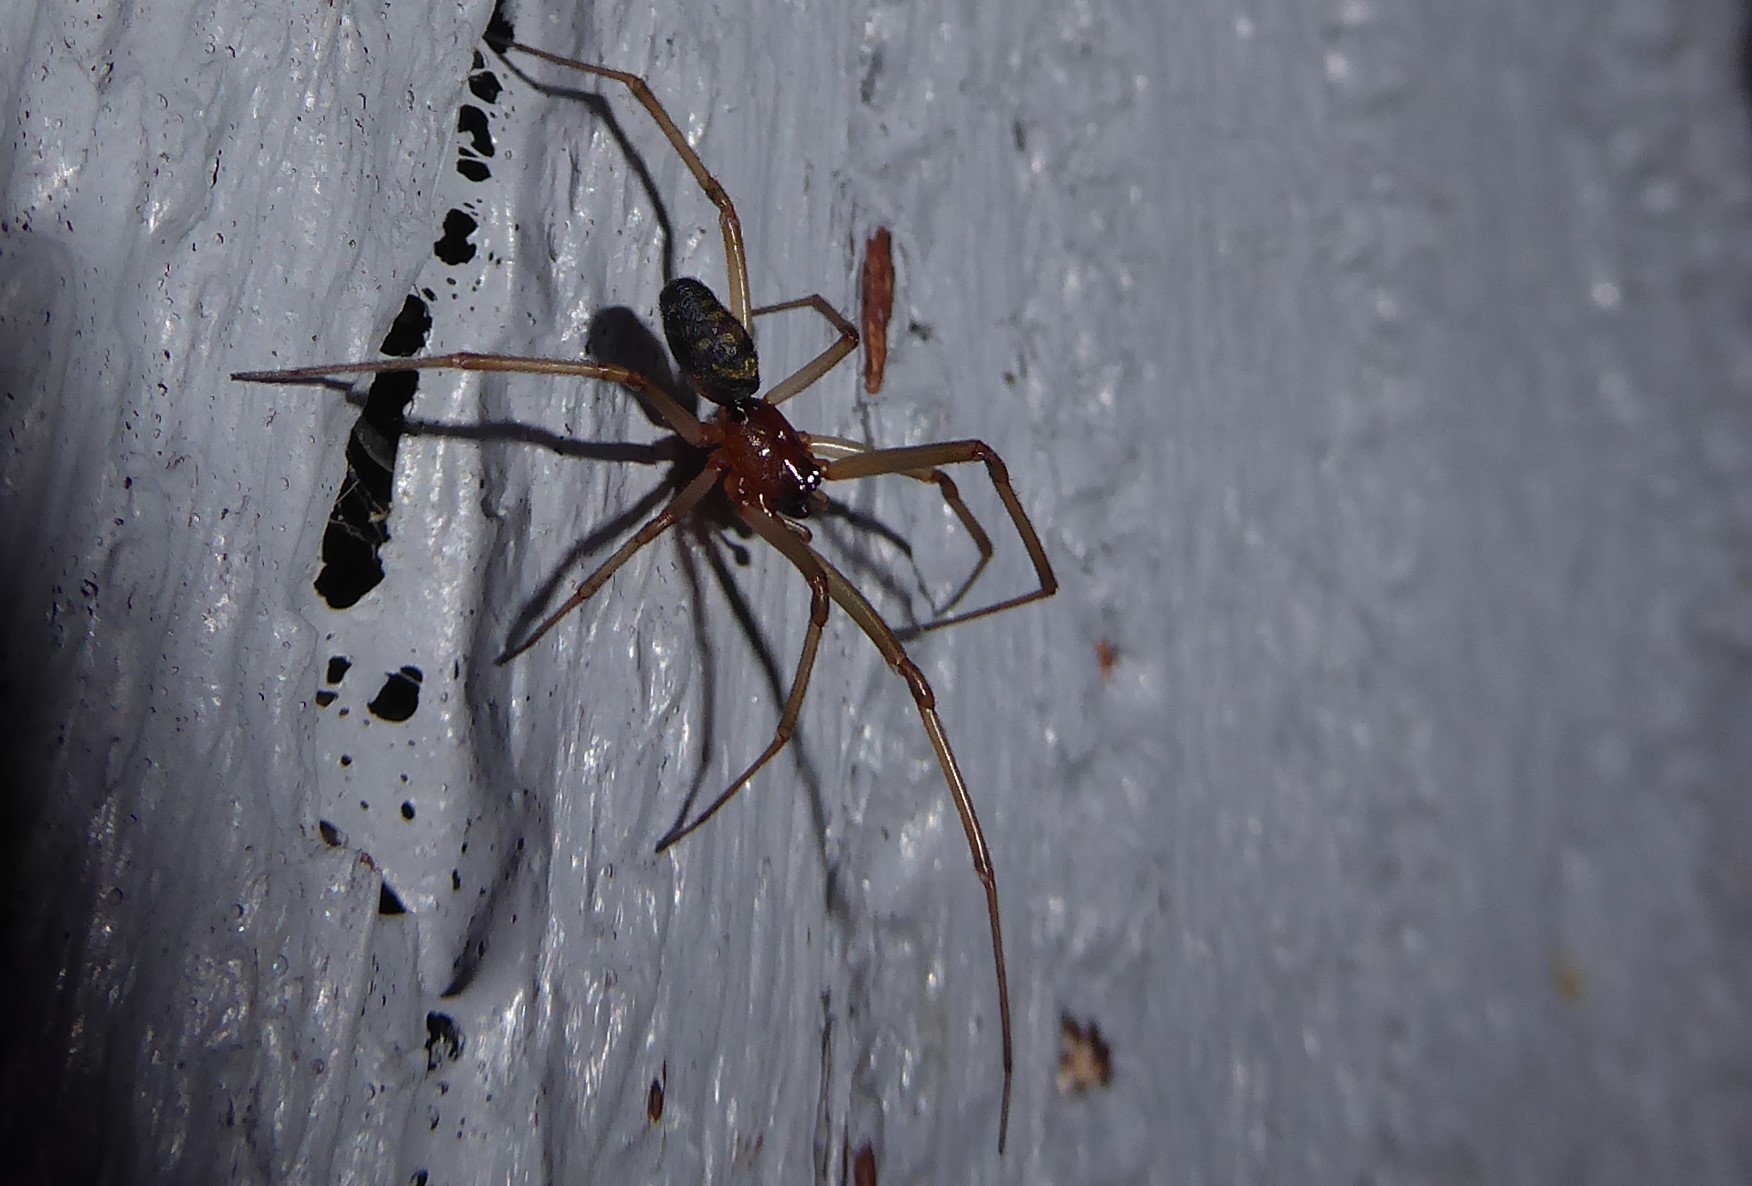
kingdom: Animalia
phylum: Arthropoda
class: Arachnida
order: Araneae
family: Theridiidae
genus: Steatoda
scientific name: Steatoda grossa
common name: False black widow
